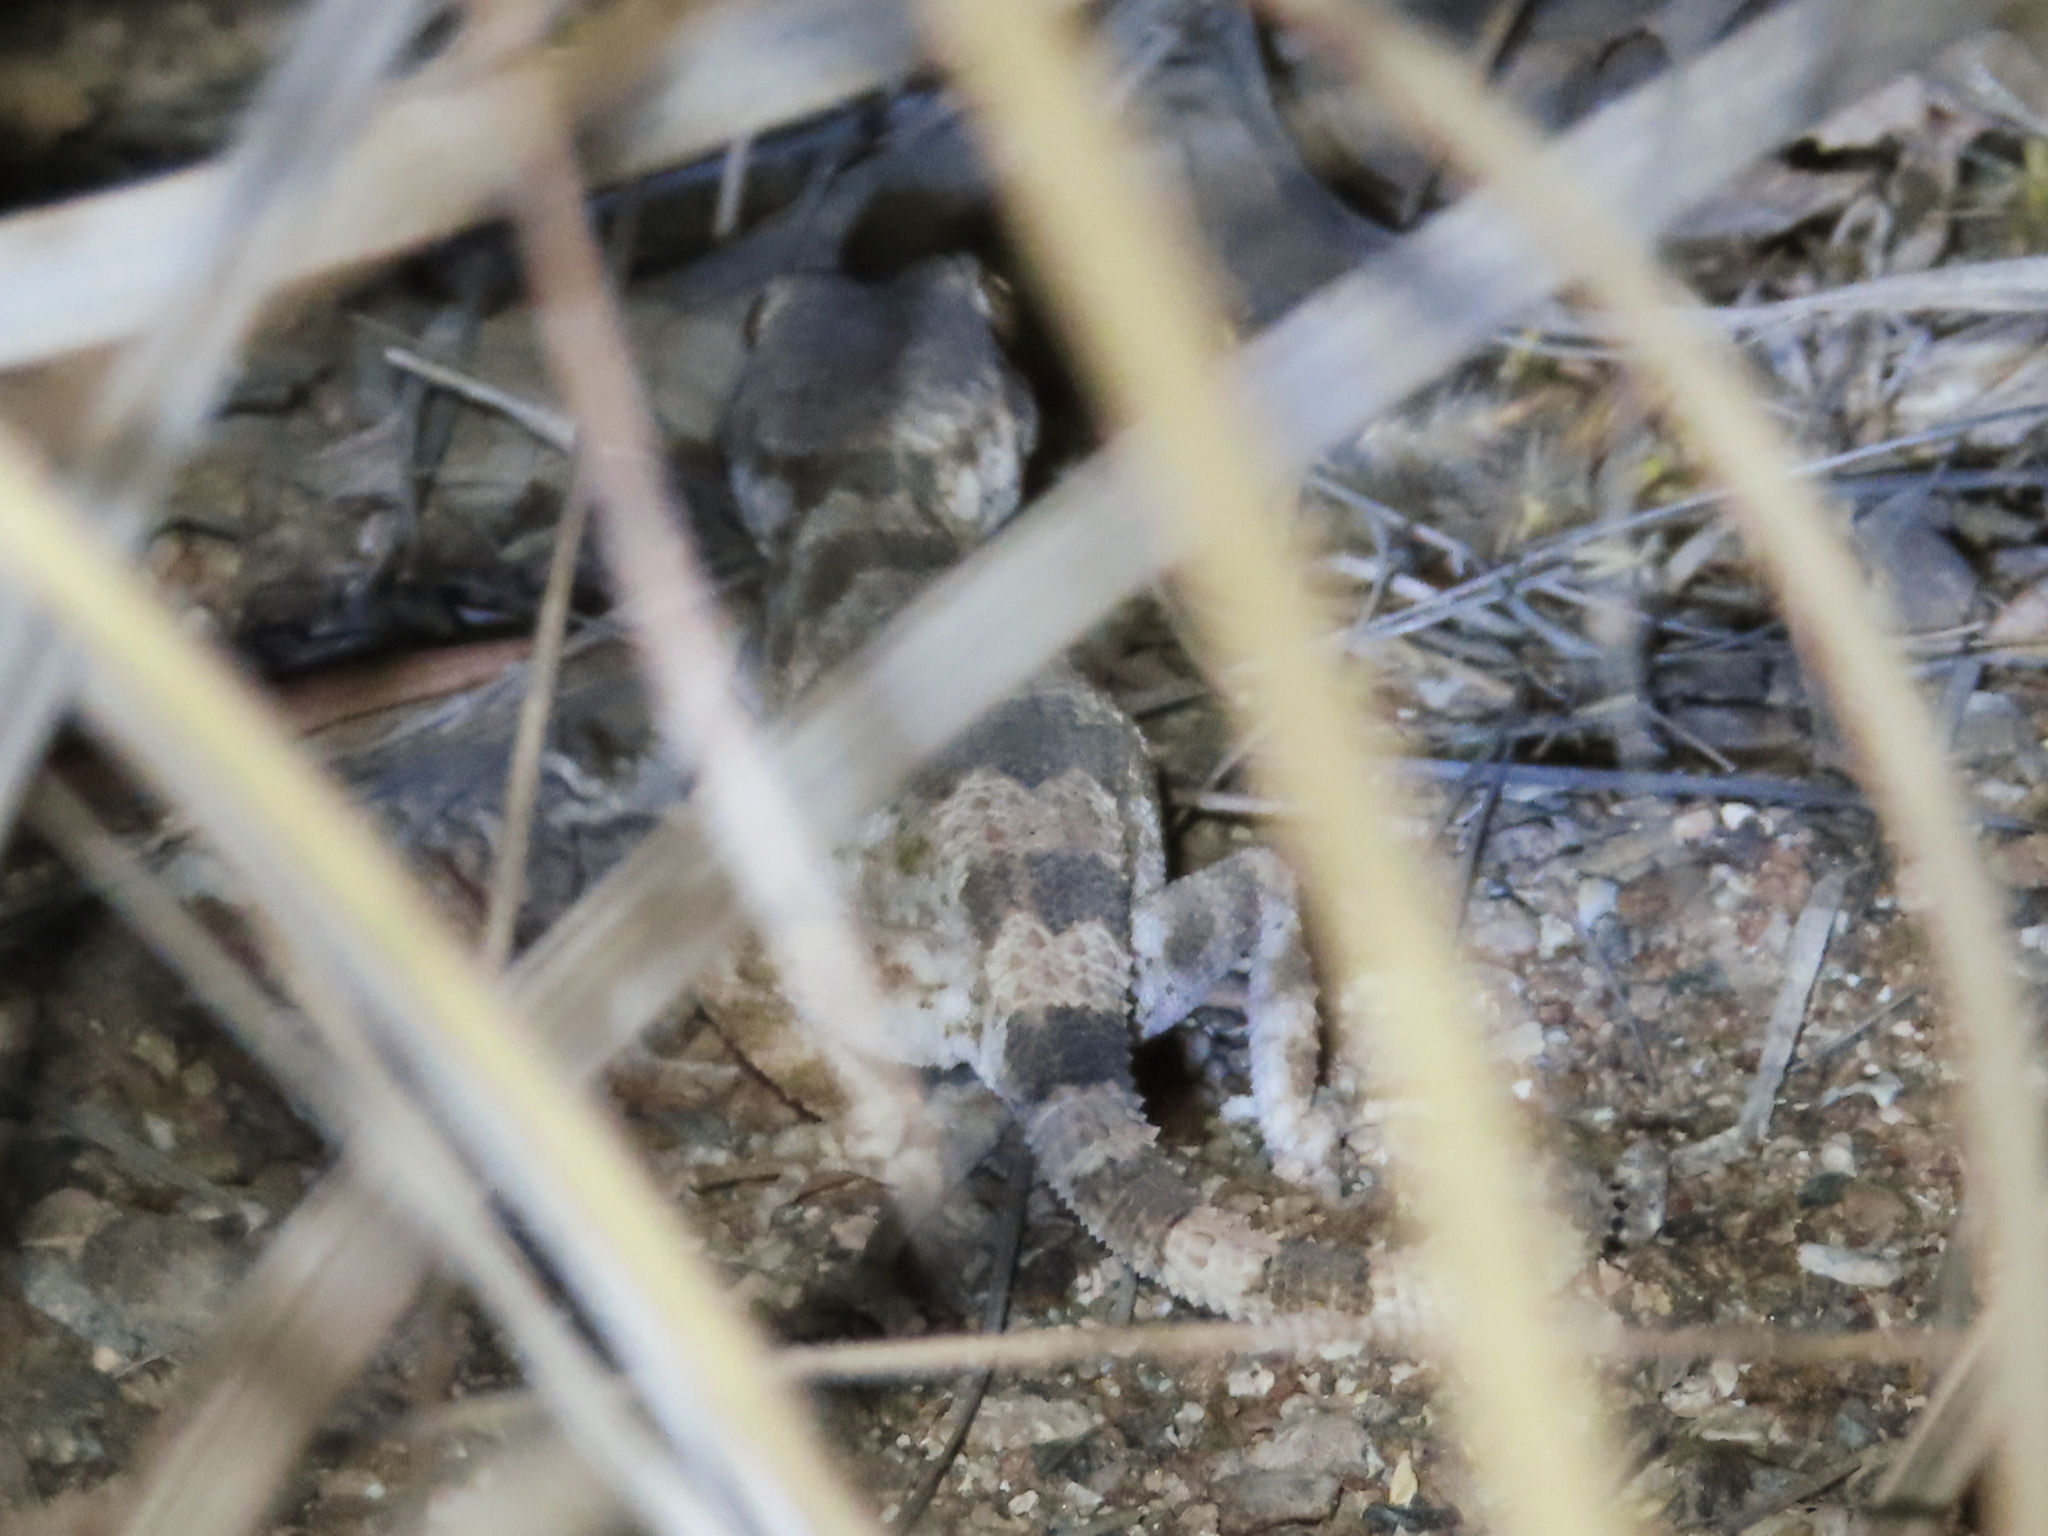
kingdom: Animalia
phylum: Chordata
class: Squamata
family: Gekkonidae
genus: Trachydactylus
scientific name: Trachydactylus hajarensis
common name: Banded rock gecko
